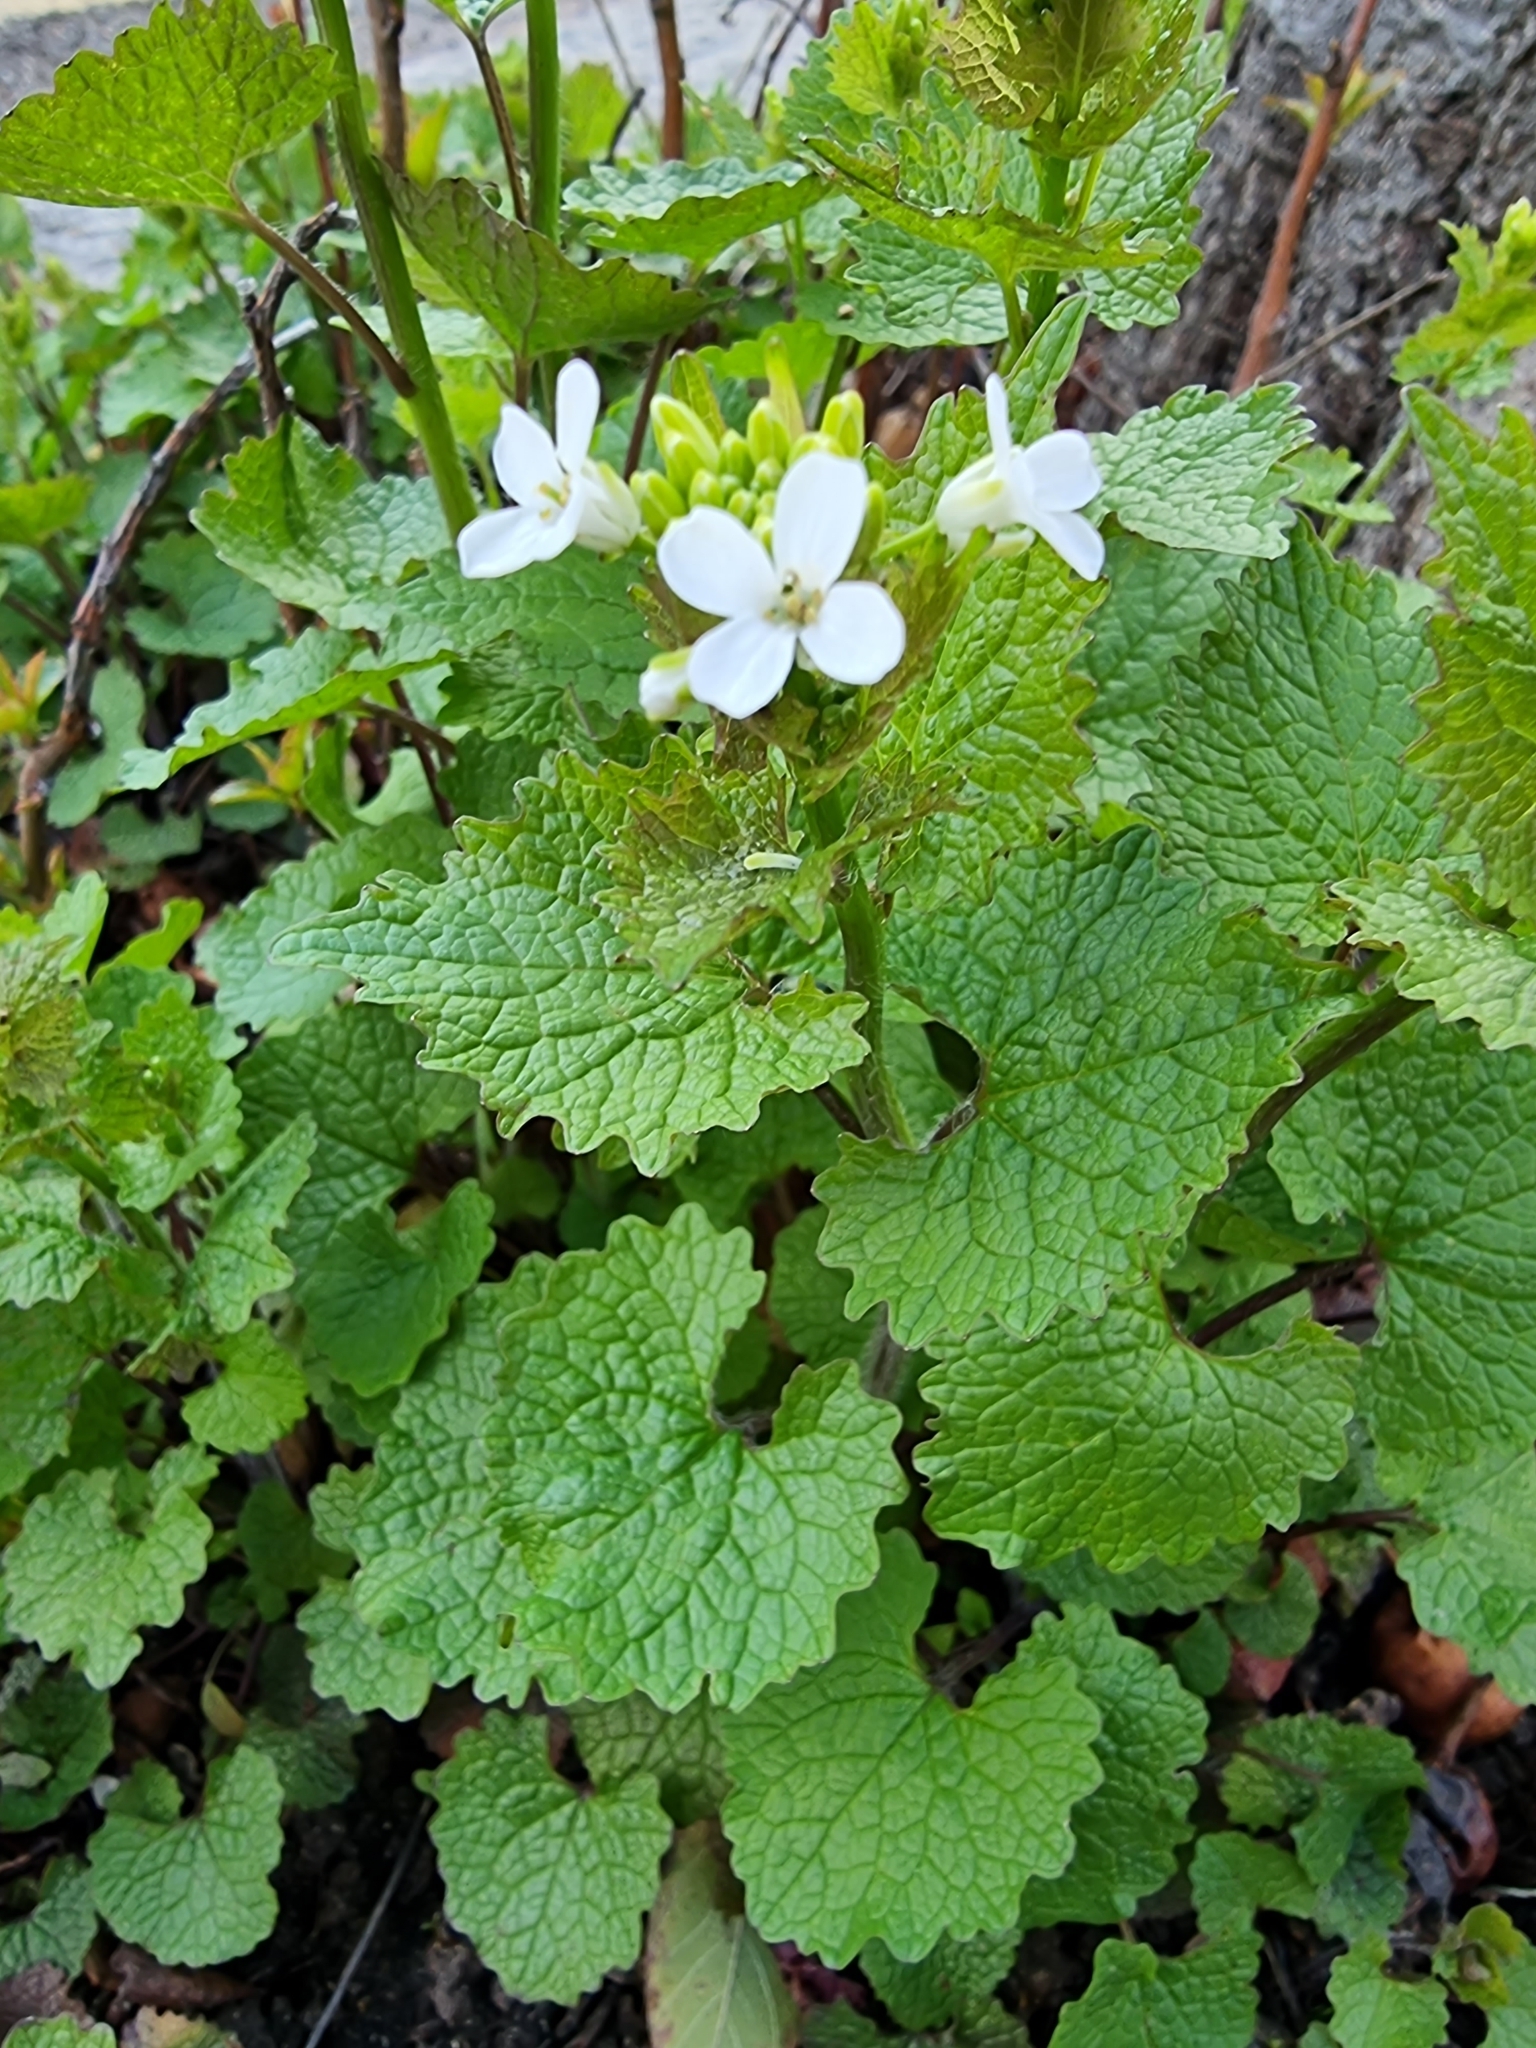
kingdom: Plantae
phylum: Tracheophyta
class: Magnoliopsida
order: Brassicales
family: Brassicaceae
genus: Alliaria
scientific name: Alliaria petiolata
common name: Garlic mustard
